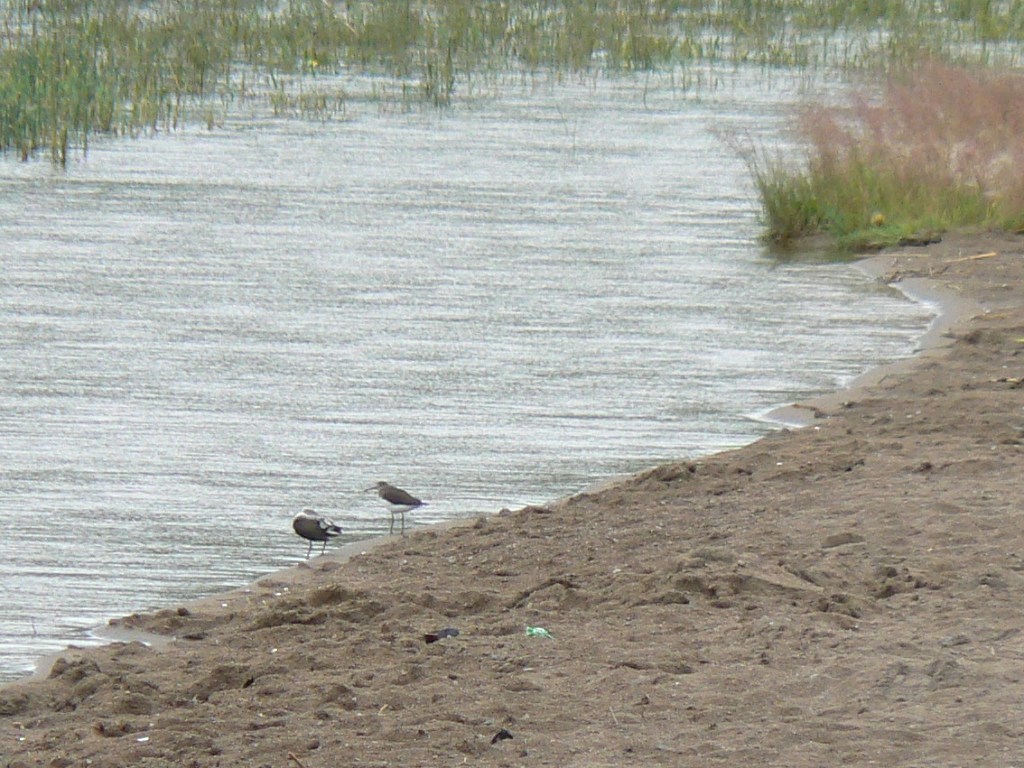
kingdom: Animalia
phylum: Chordata
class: Aves
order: Charadriiformes
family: Scolopacidae
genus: Tringa
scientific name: Tringa ochropus
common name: Green sandpiper
